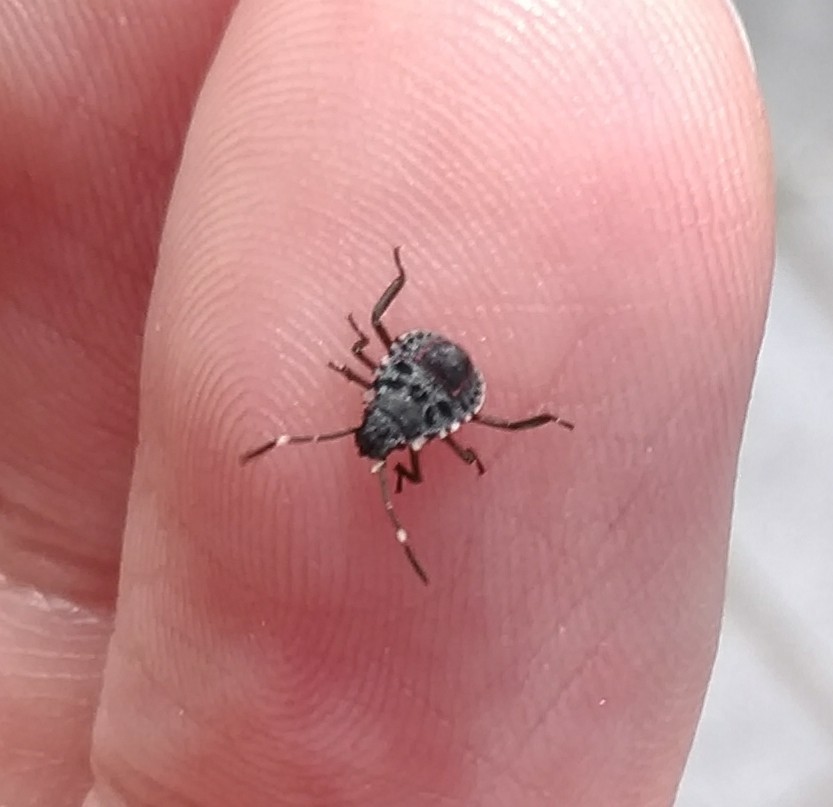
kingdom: Animalia
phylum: Arthropoda
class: Insecta
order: Hemiptera
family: Pentatomidae
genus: Halyomorpha
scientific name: Halyomorpha halys
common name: Brown marmorated stink bug
